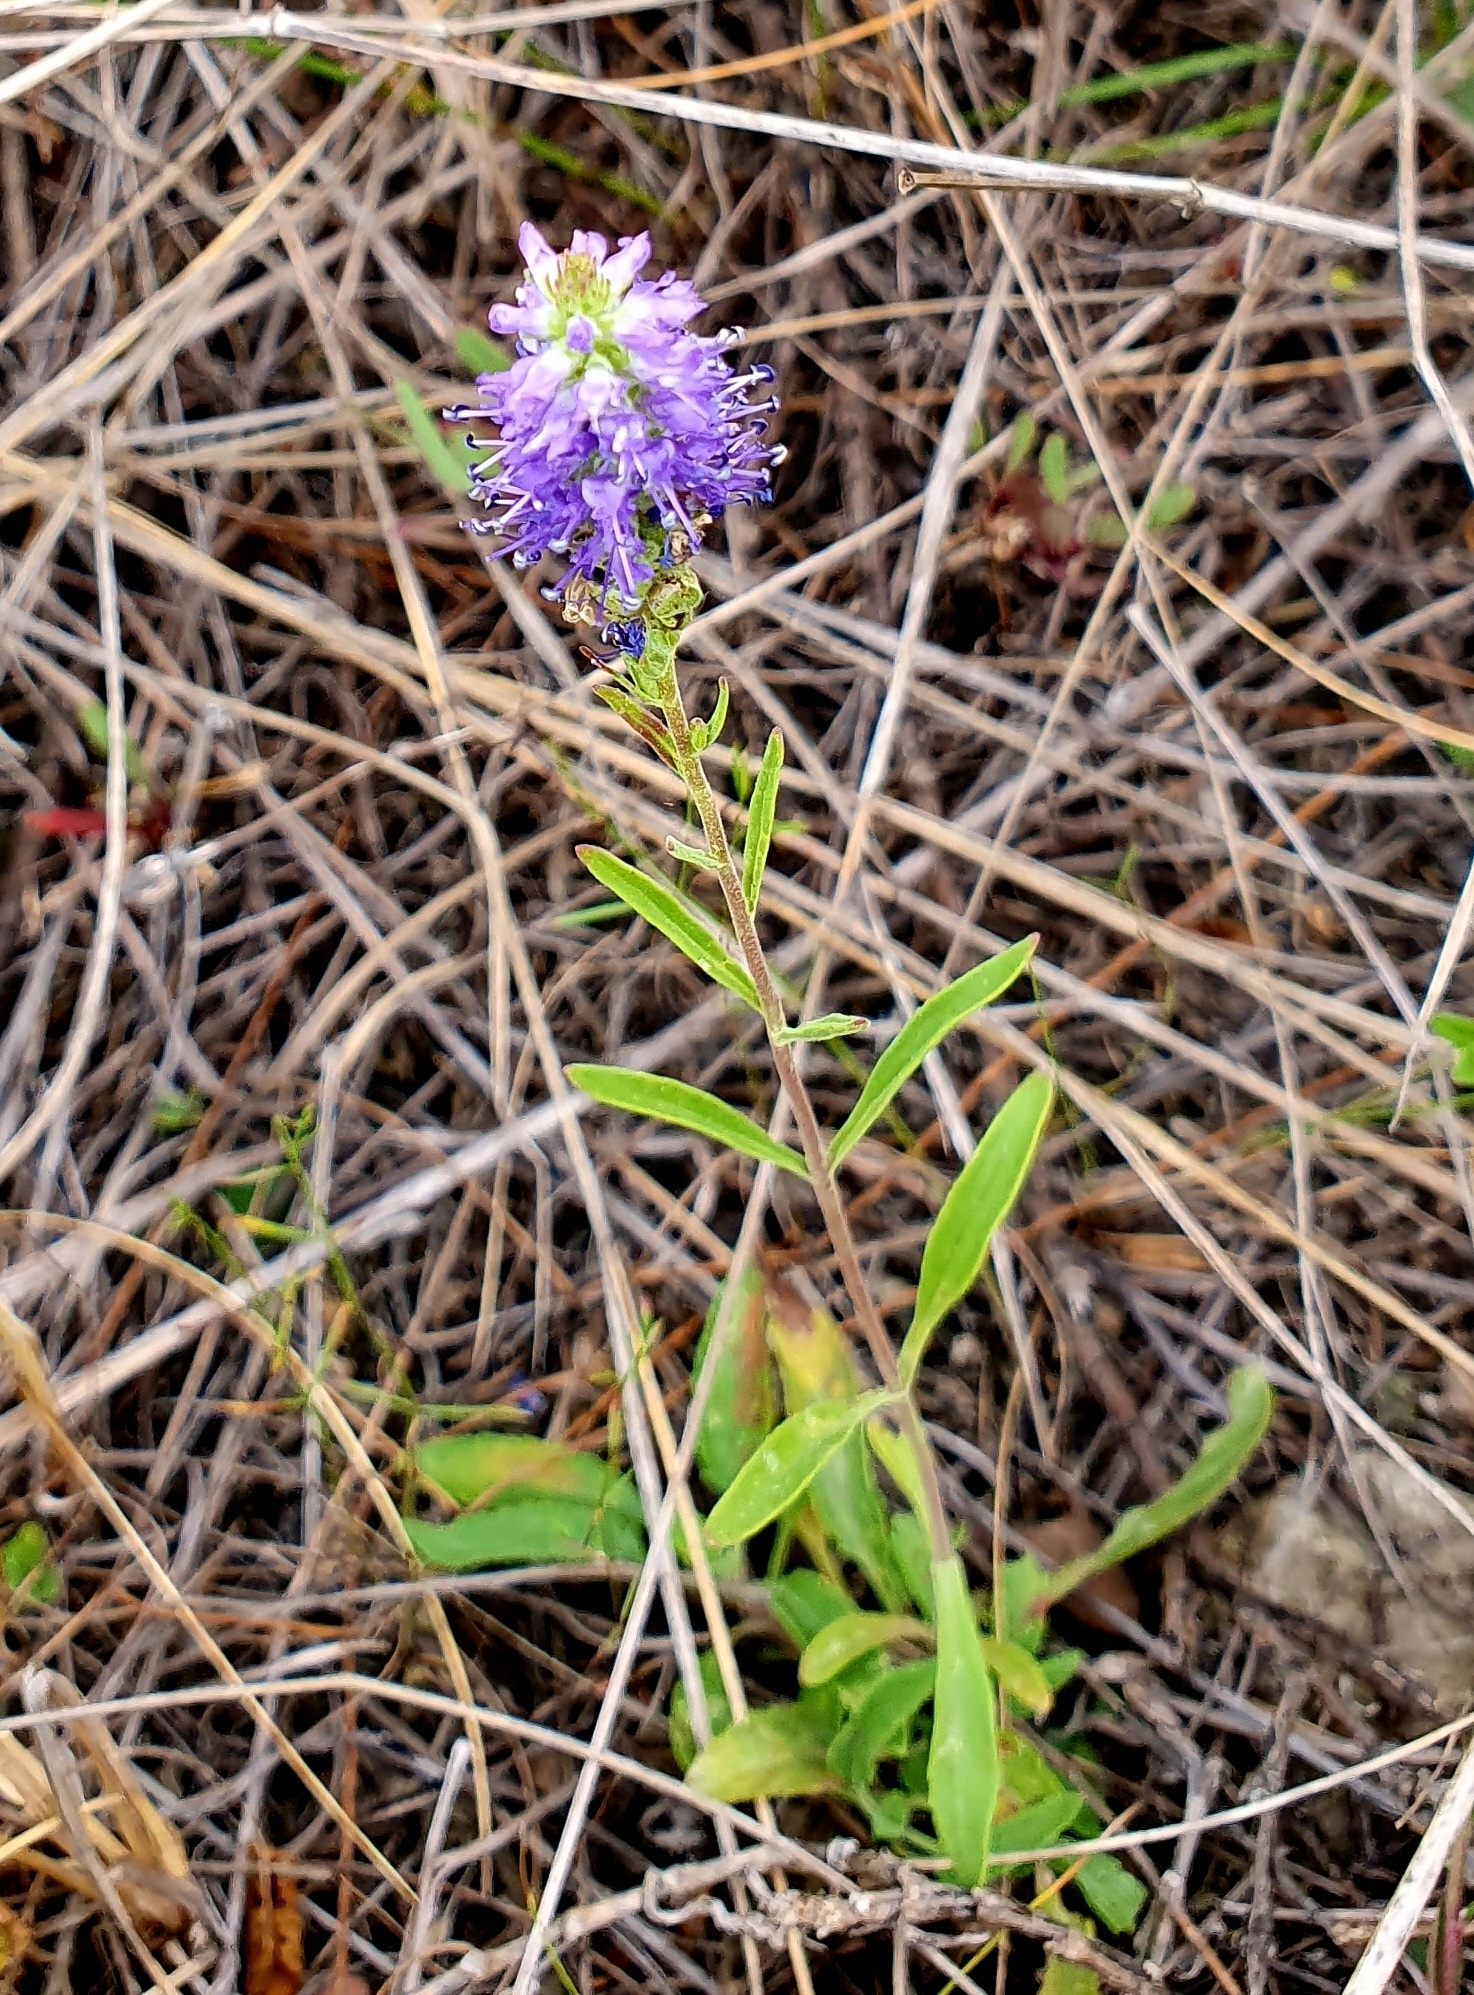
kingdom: Plantae
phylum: Tracheophyta
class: Magnoliopsida
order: Lamiales
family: Plantaginaceae
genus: Veronica
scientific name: Veronica spicata
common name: Spiked speedwell
